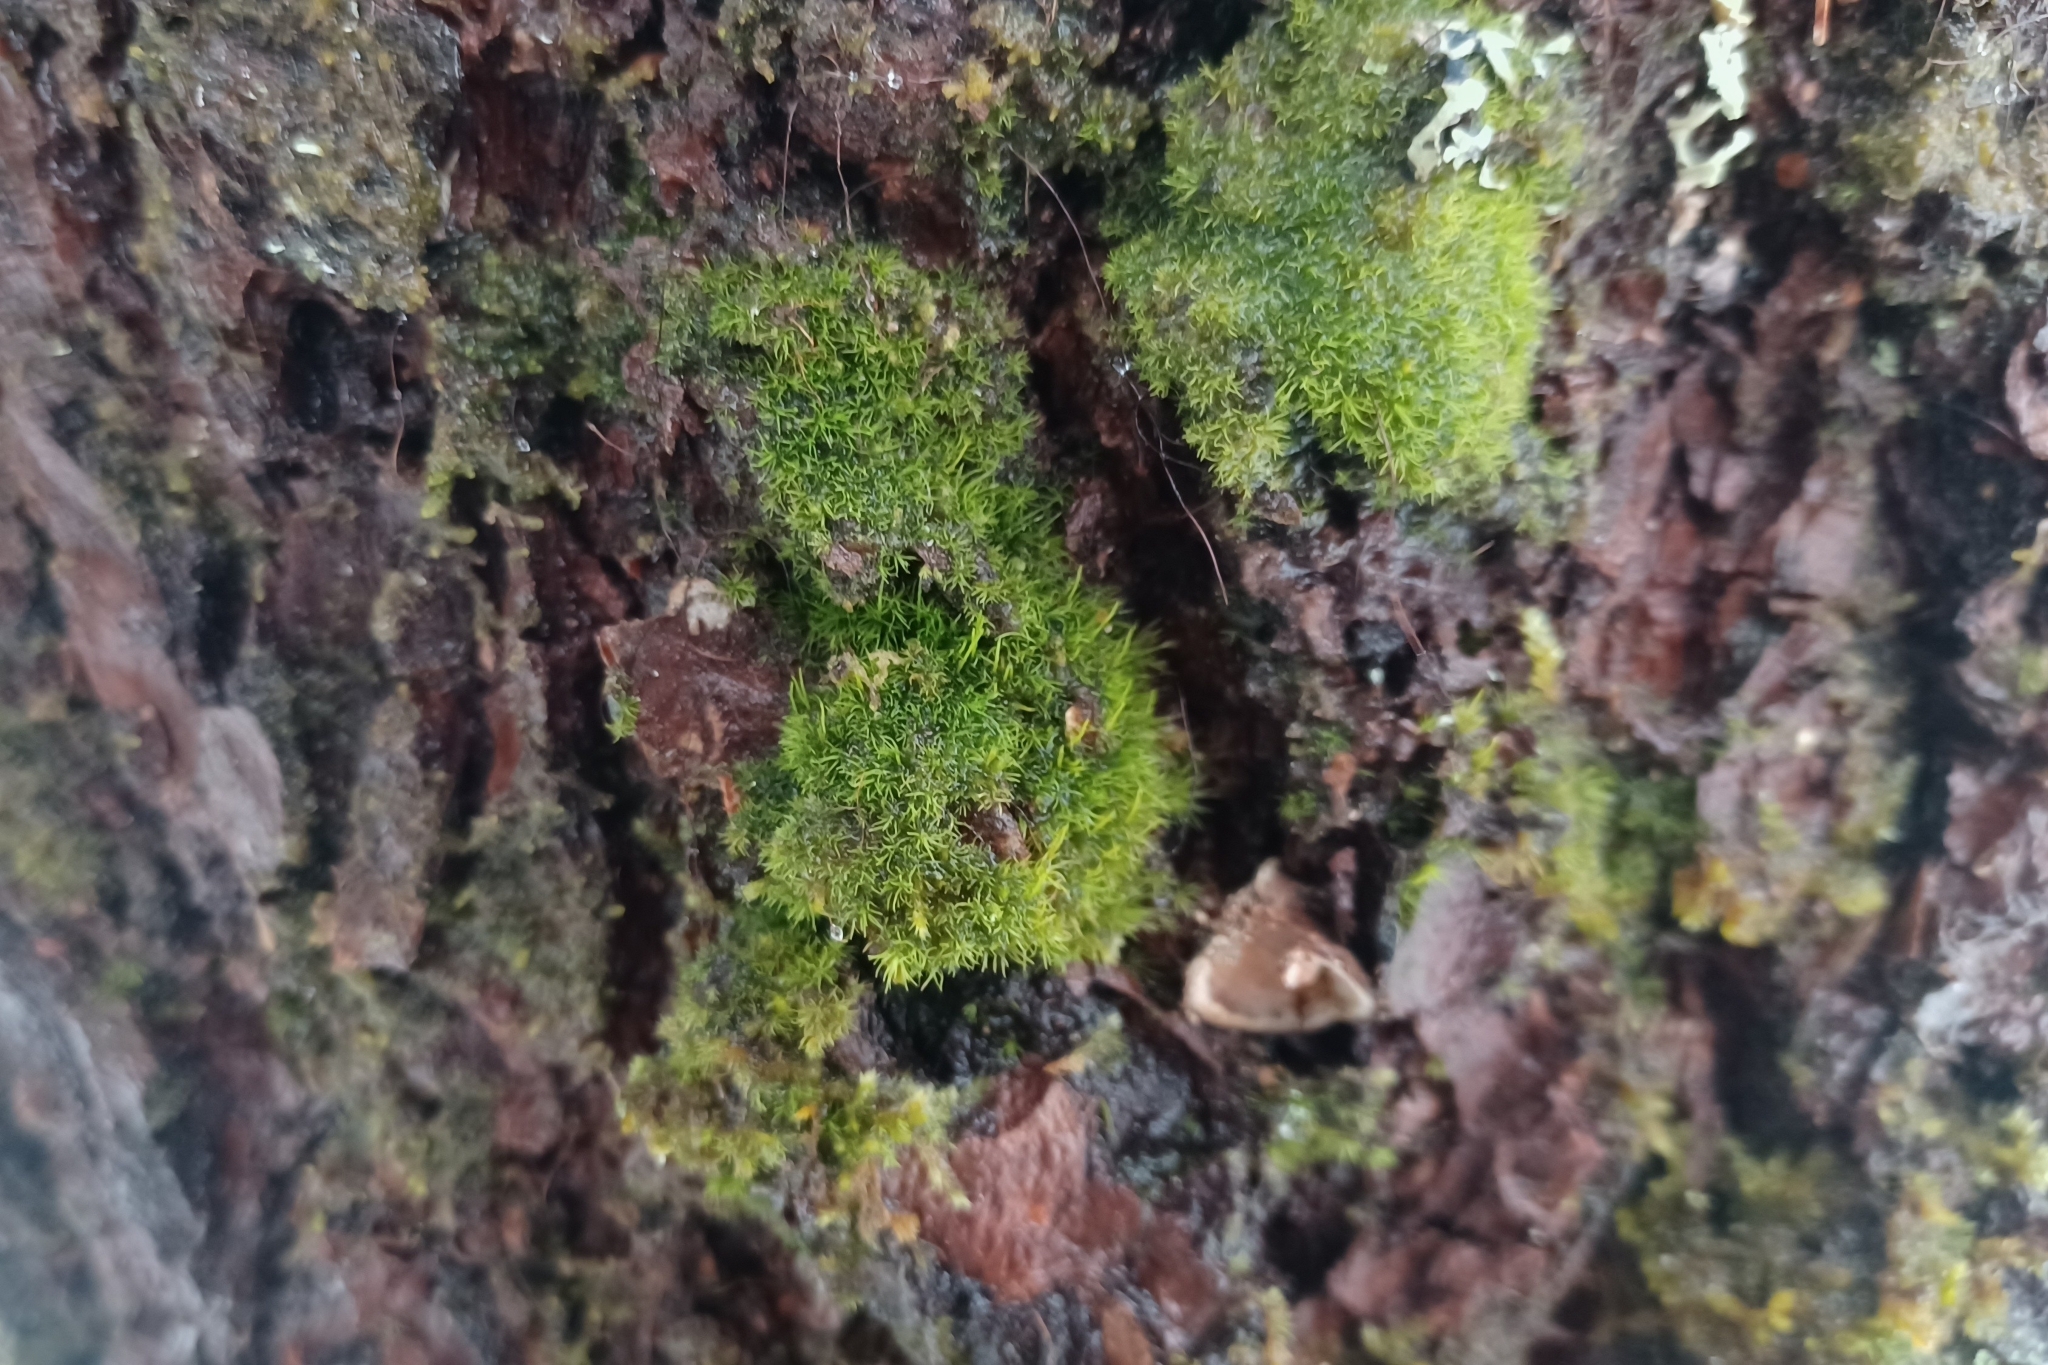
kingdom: Plantae
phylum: Bryophyta
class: Bryopsida
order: Dicranales
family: Dicranaceae
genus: Orthodicranum
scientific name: Orthodicranum flagellare
